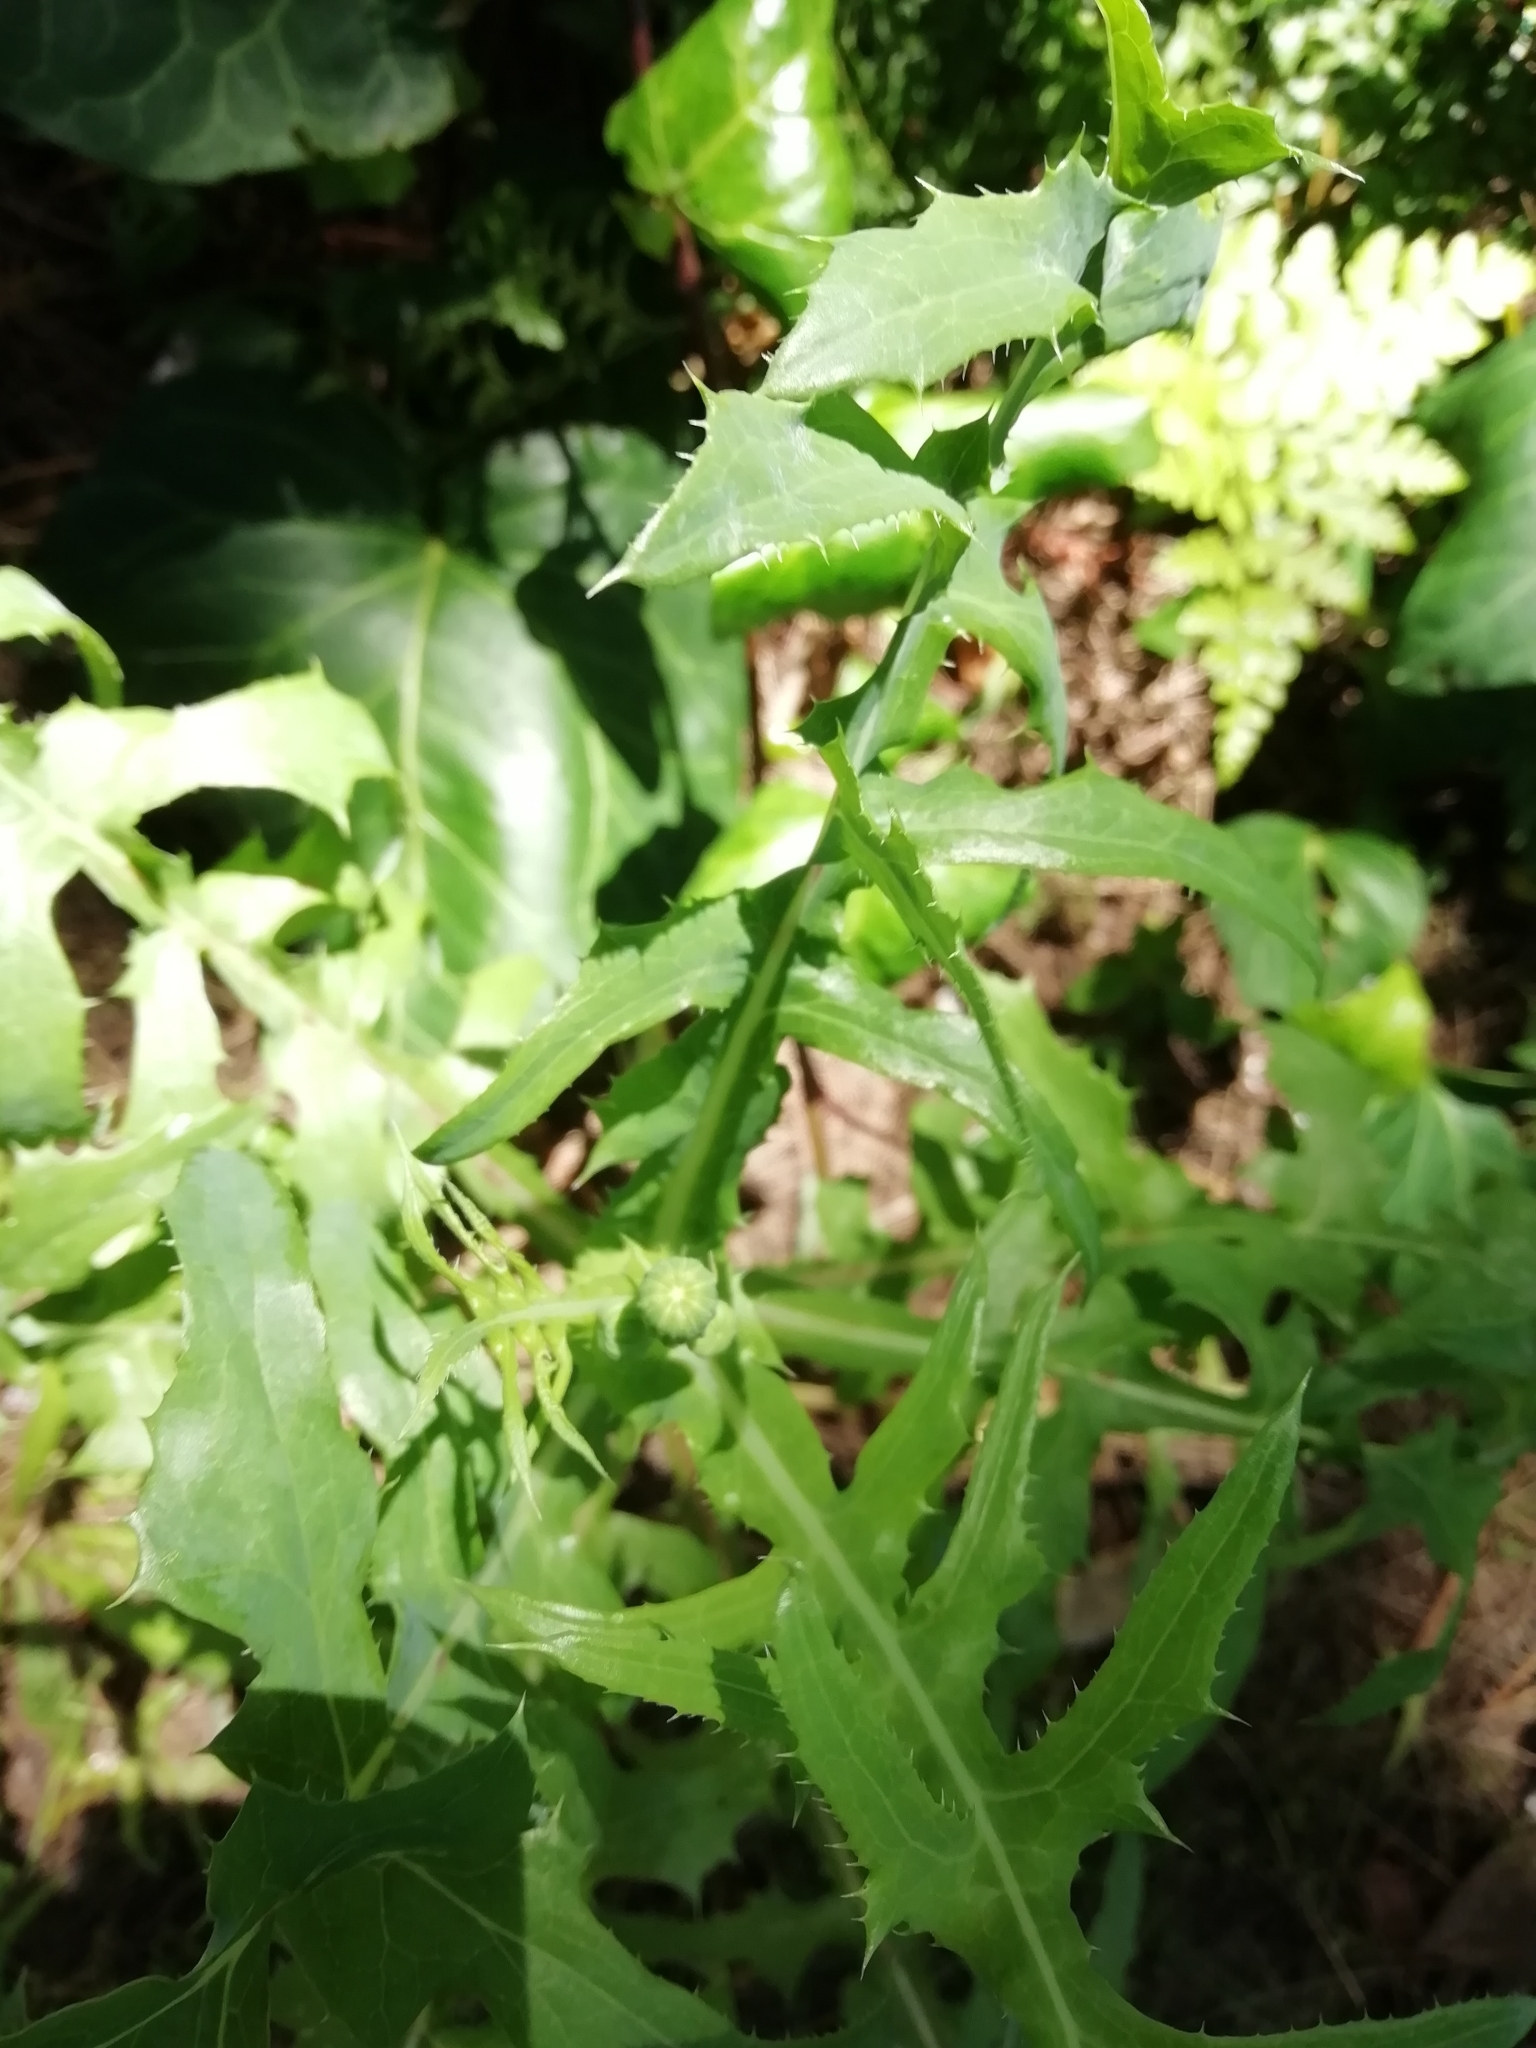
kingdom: Plantae
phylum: Tracheophyta
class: Magnoliopsida
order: Asterales
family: Asteraceae
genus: Sonchus
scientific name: Sonchus oleraceus
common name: Common sowthistle
